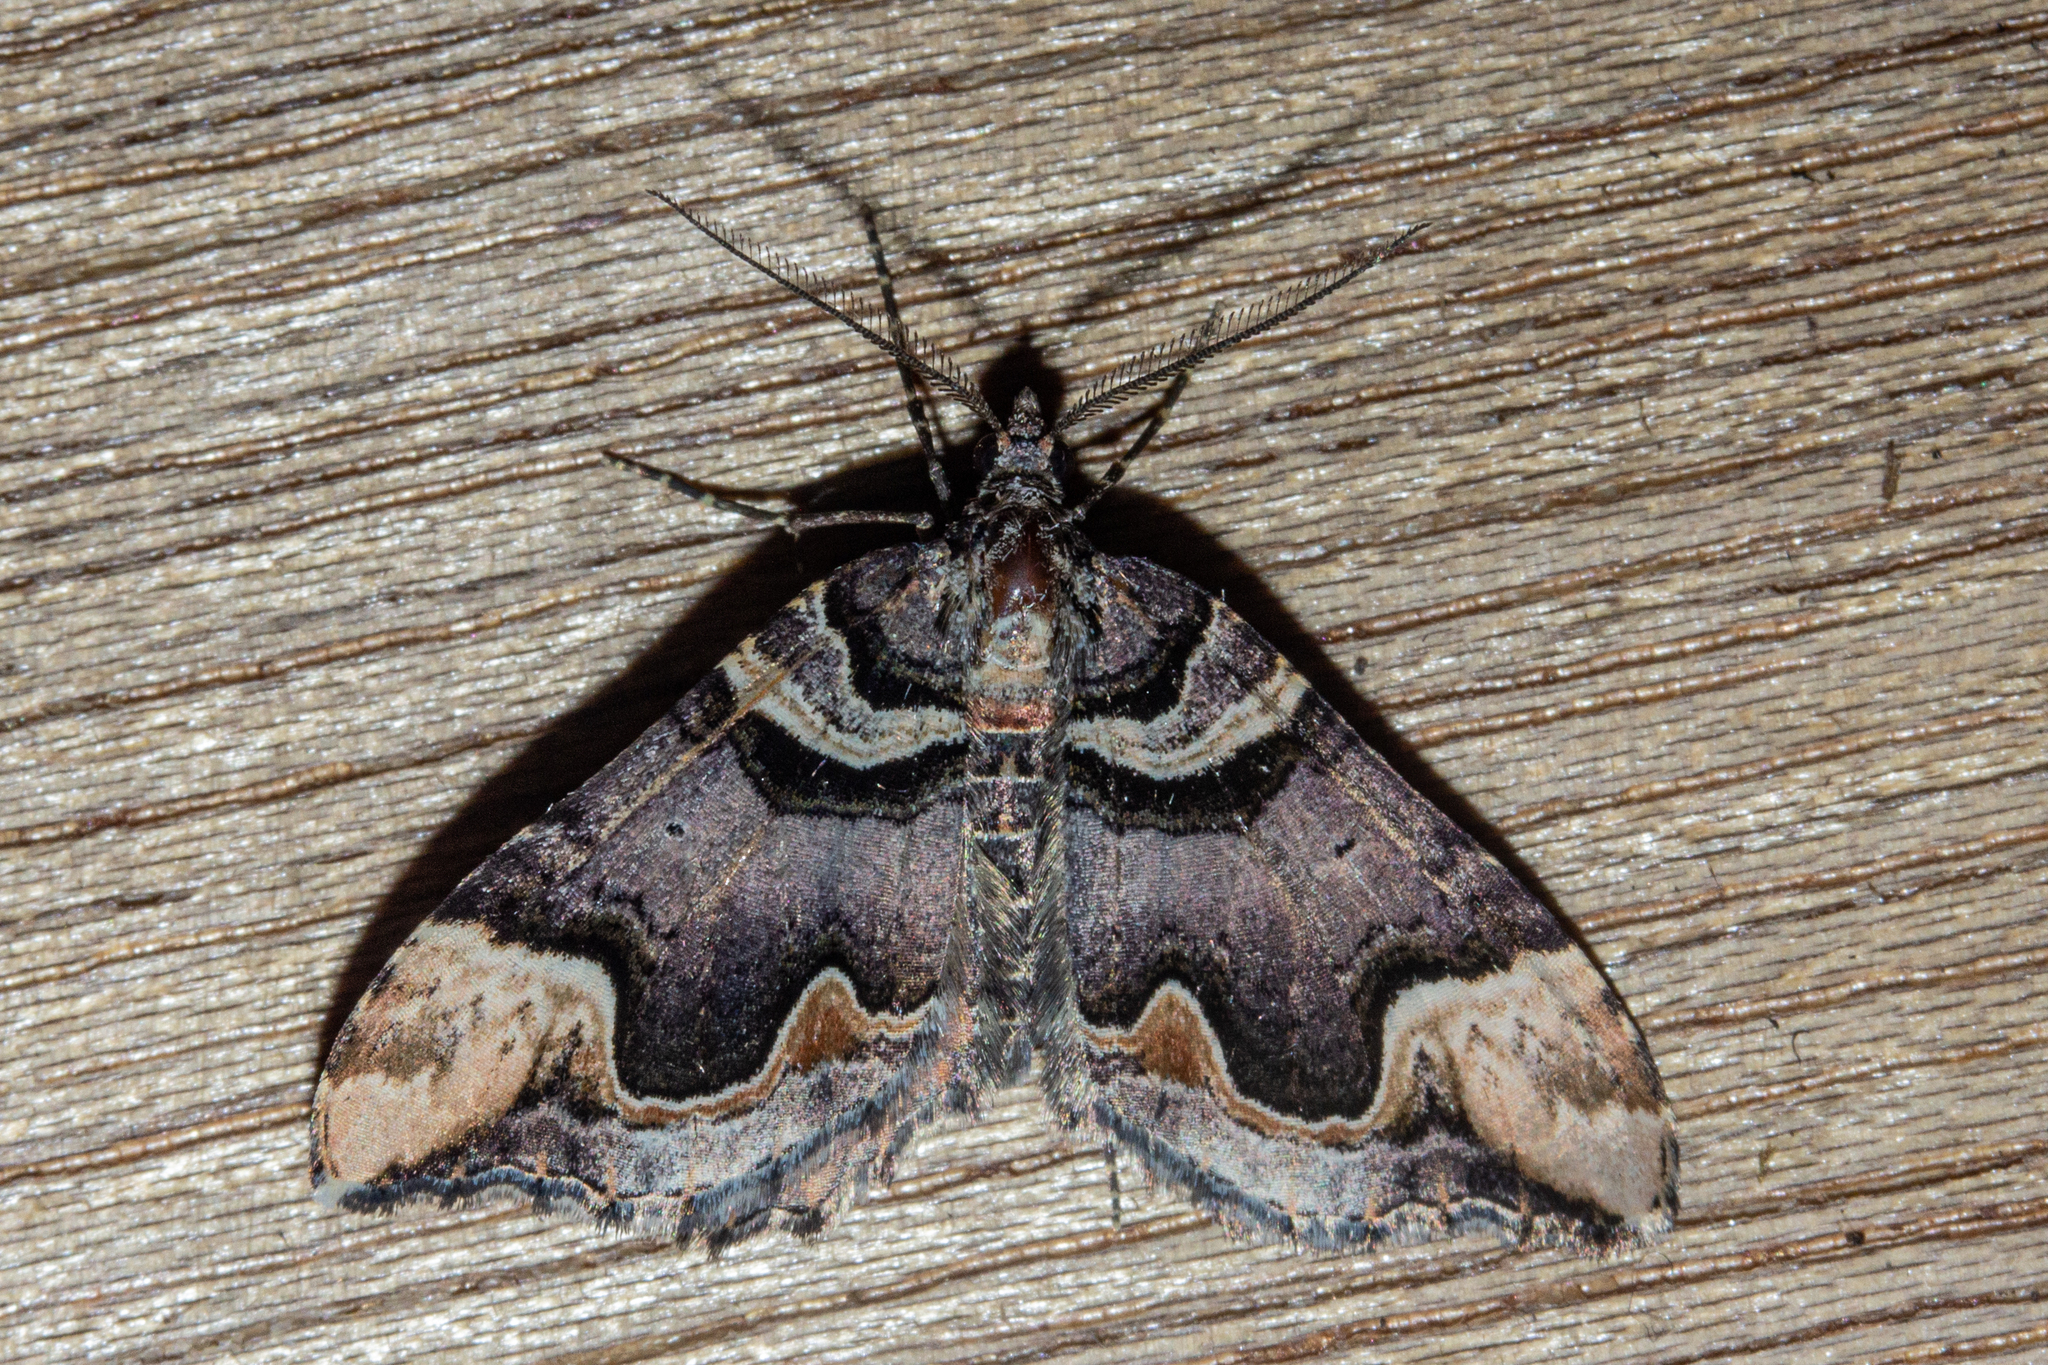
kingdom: Animalia
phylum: Arthropoda
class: Insecta
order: Lepidoptera
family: Geometridae
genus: Asaphodes
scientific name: Asaphodes chlamydota
